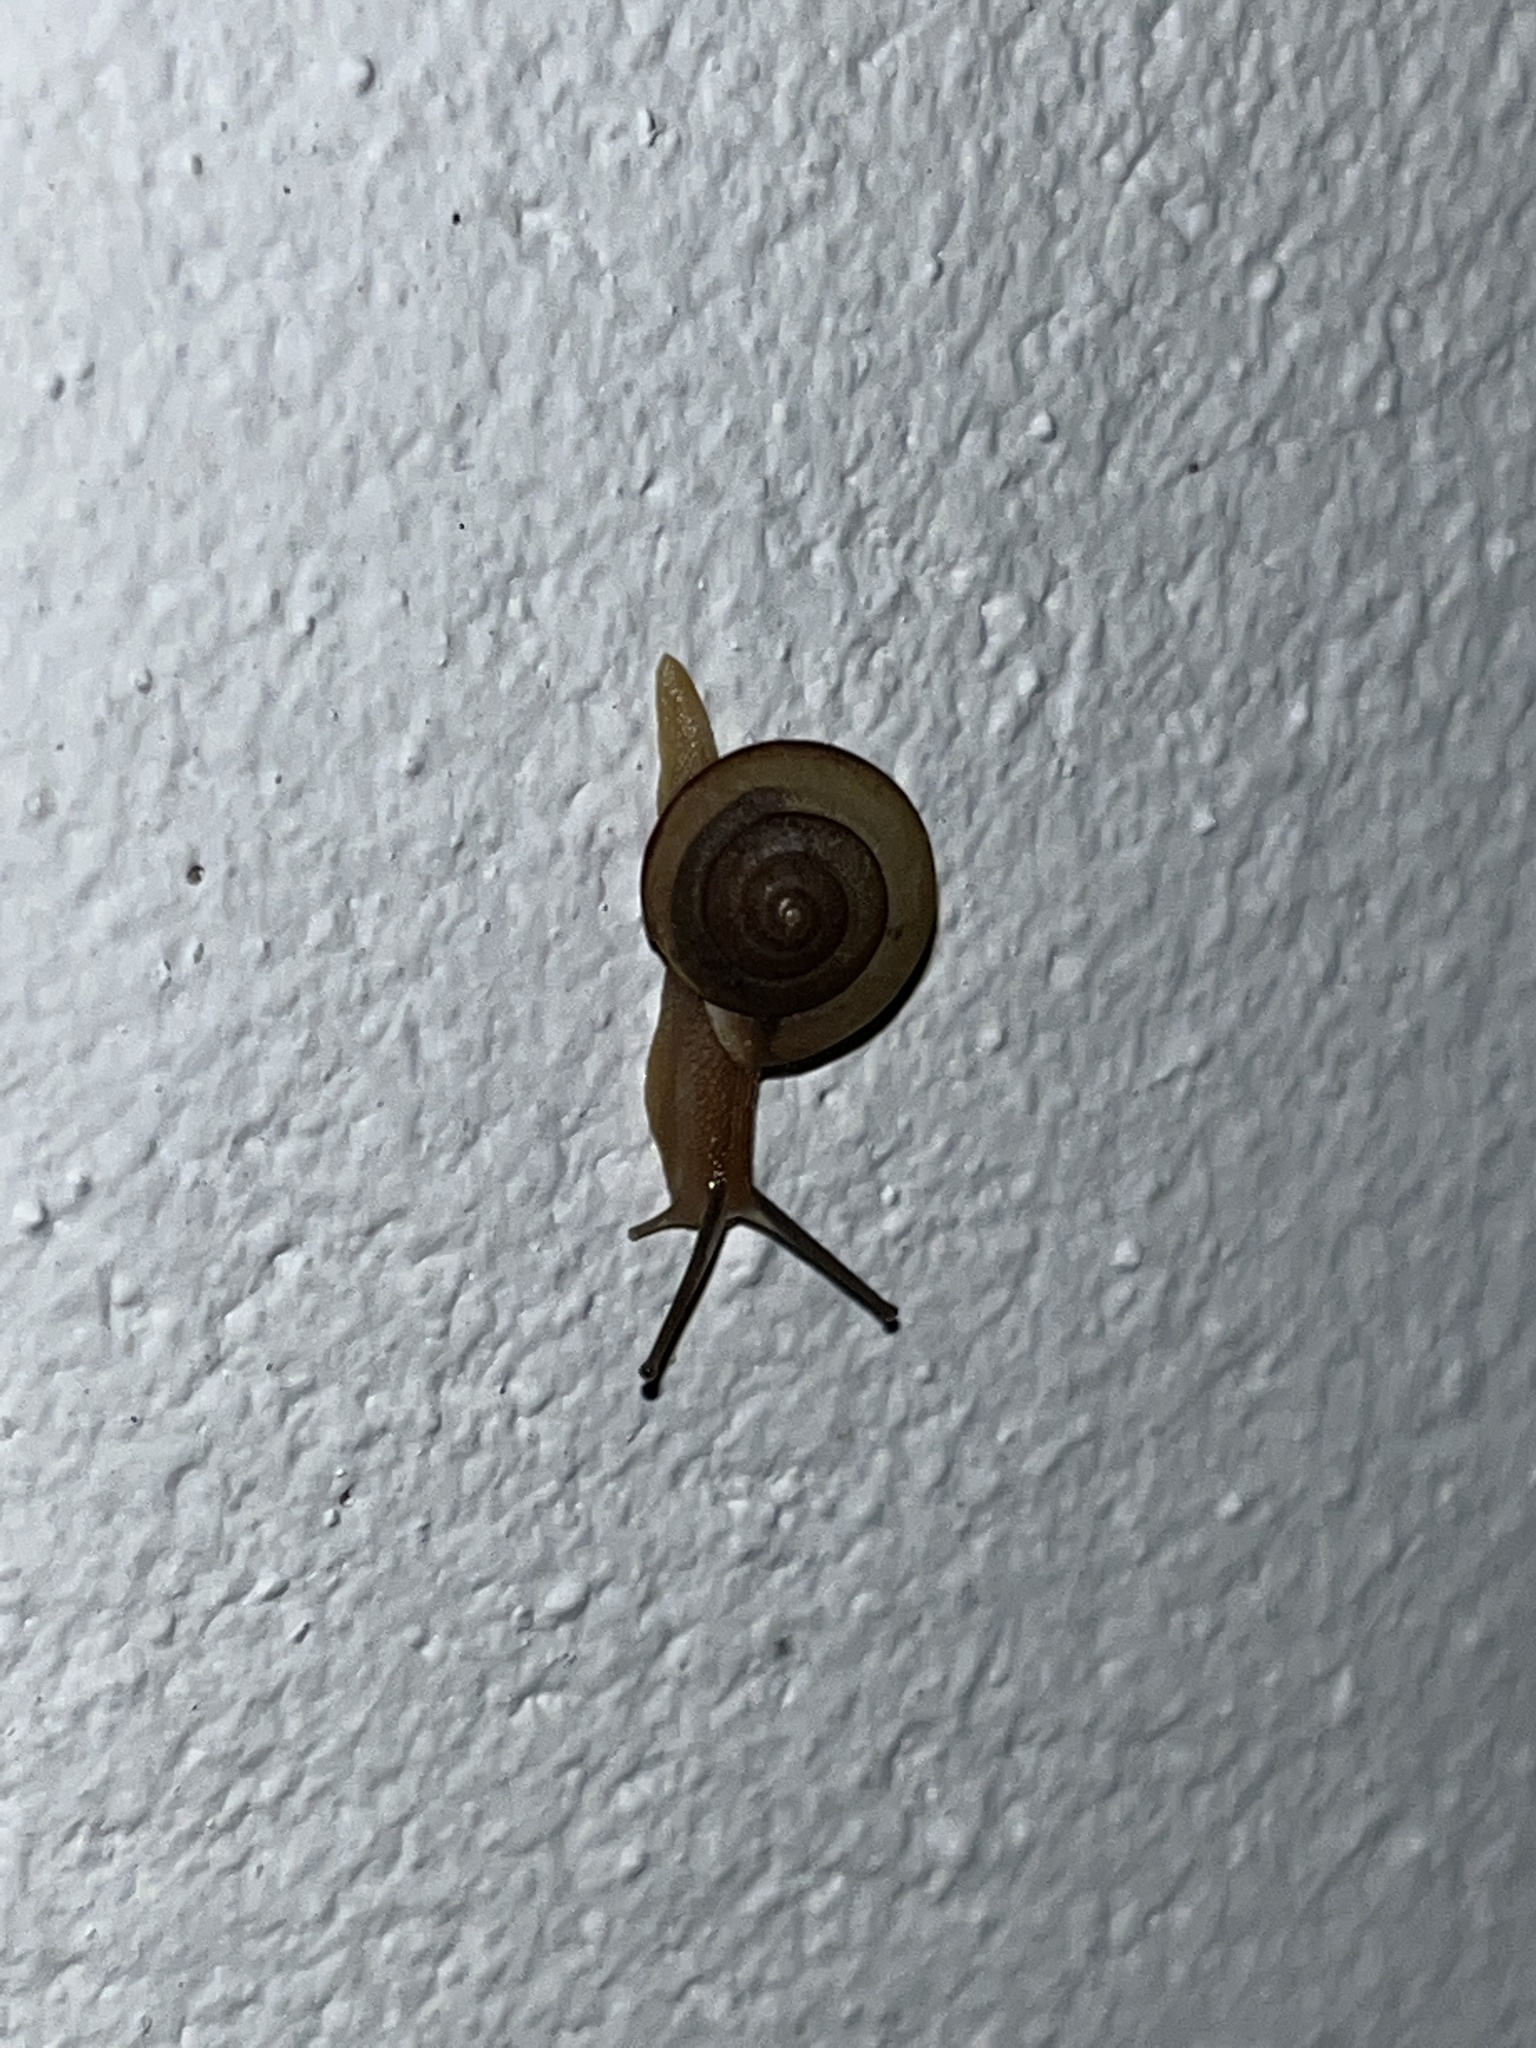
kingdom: Animalia
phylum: Mollusca
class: Gastropoda
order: Stylommatophora
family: Camaenidae
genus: Bradybaena
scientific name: Bradybaena similaris
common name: Asian trampsnail
